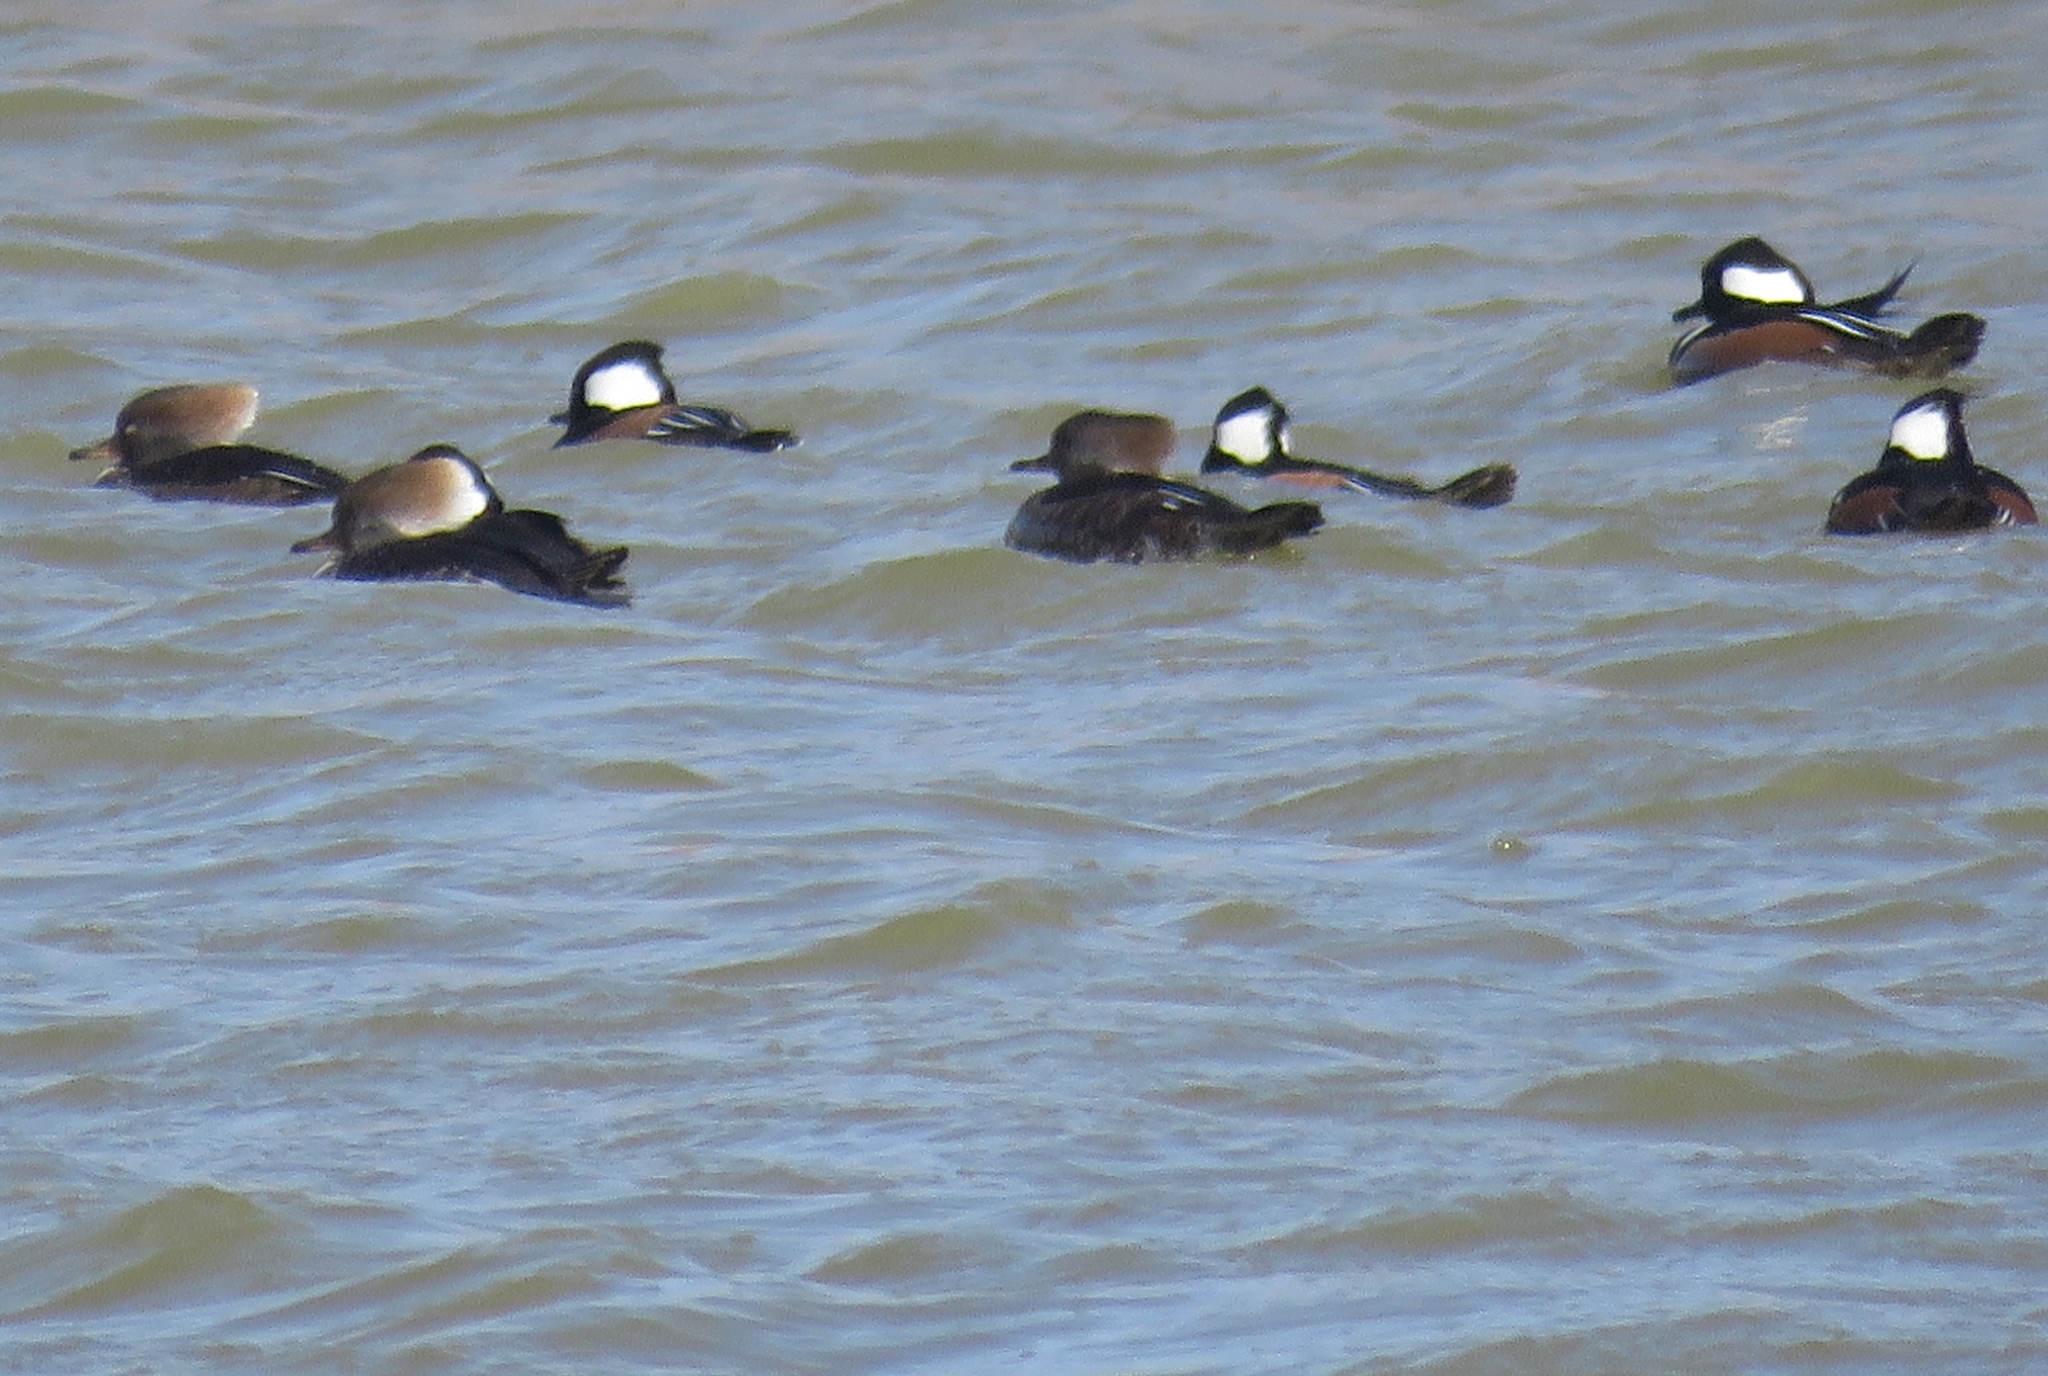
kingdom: Animalia
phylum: Chordata
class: Aves
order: Anseriformes
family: Anatidae
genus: Lophodytes
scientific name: Lophodytes cucullatus
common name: Hooded merganser
